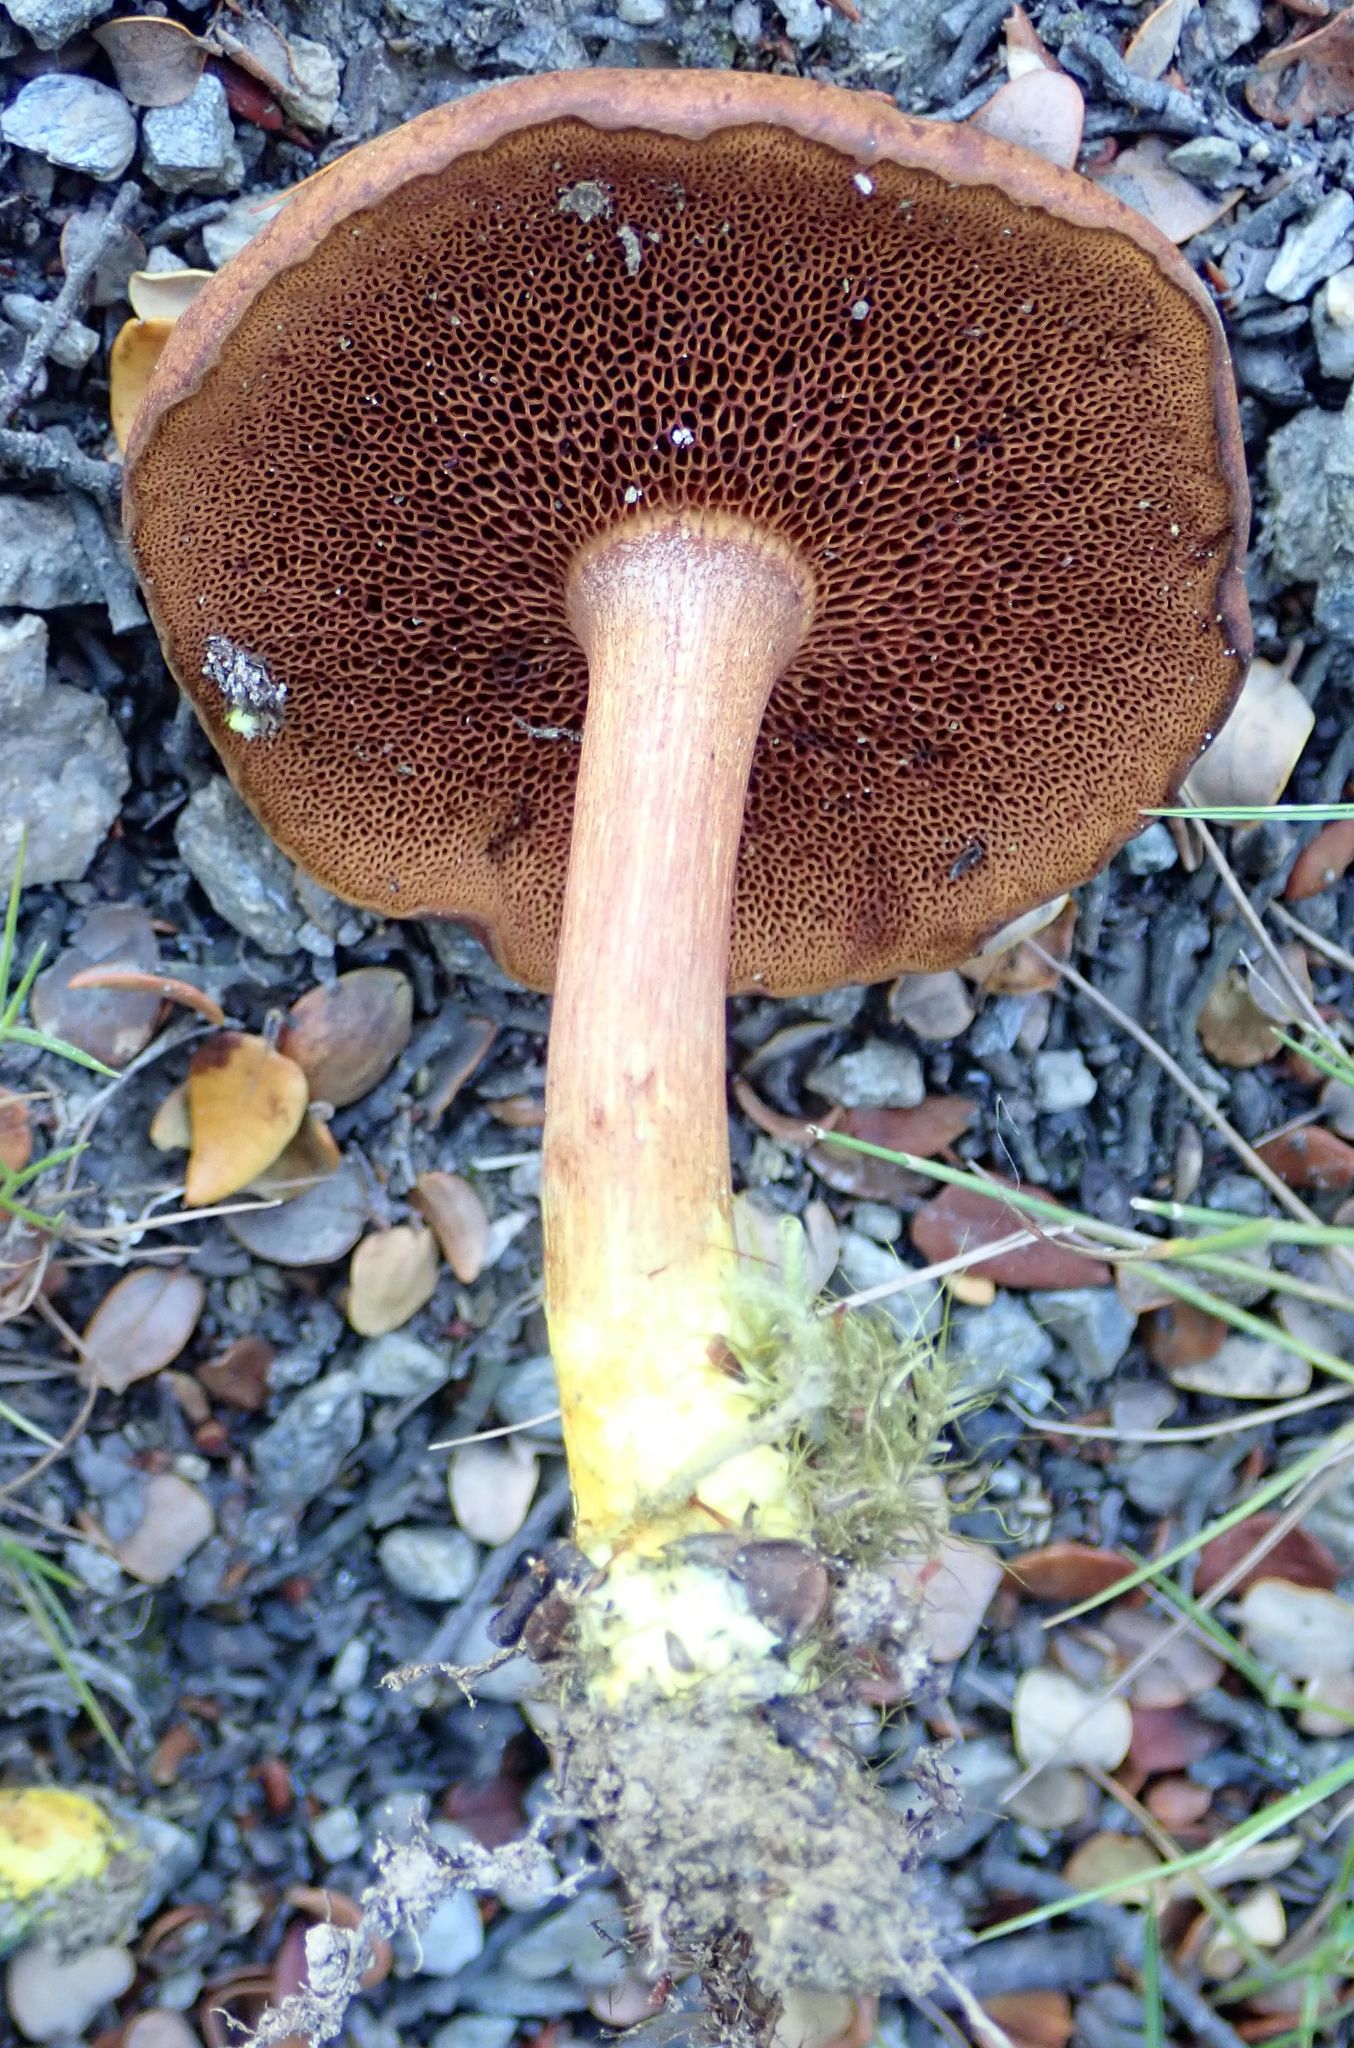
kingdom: Fungi
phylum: Basidiomycota
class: Agaricomycetes
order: Boletales
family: Boletaceae
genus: Chalciporus
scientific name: Chalciporus piperatus
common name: Peppery bolete
